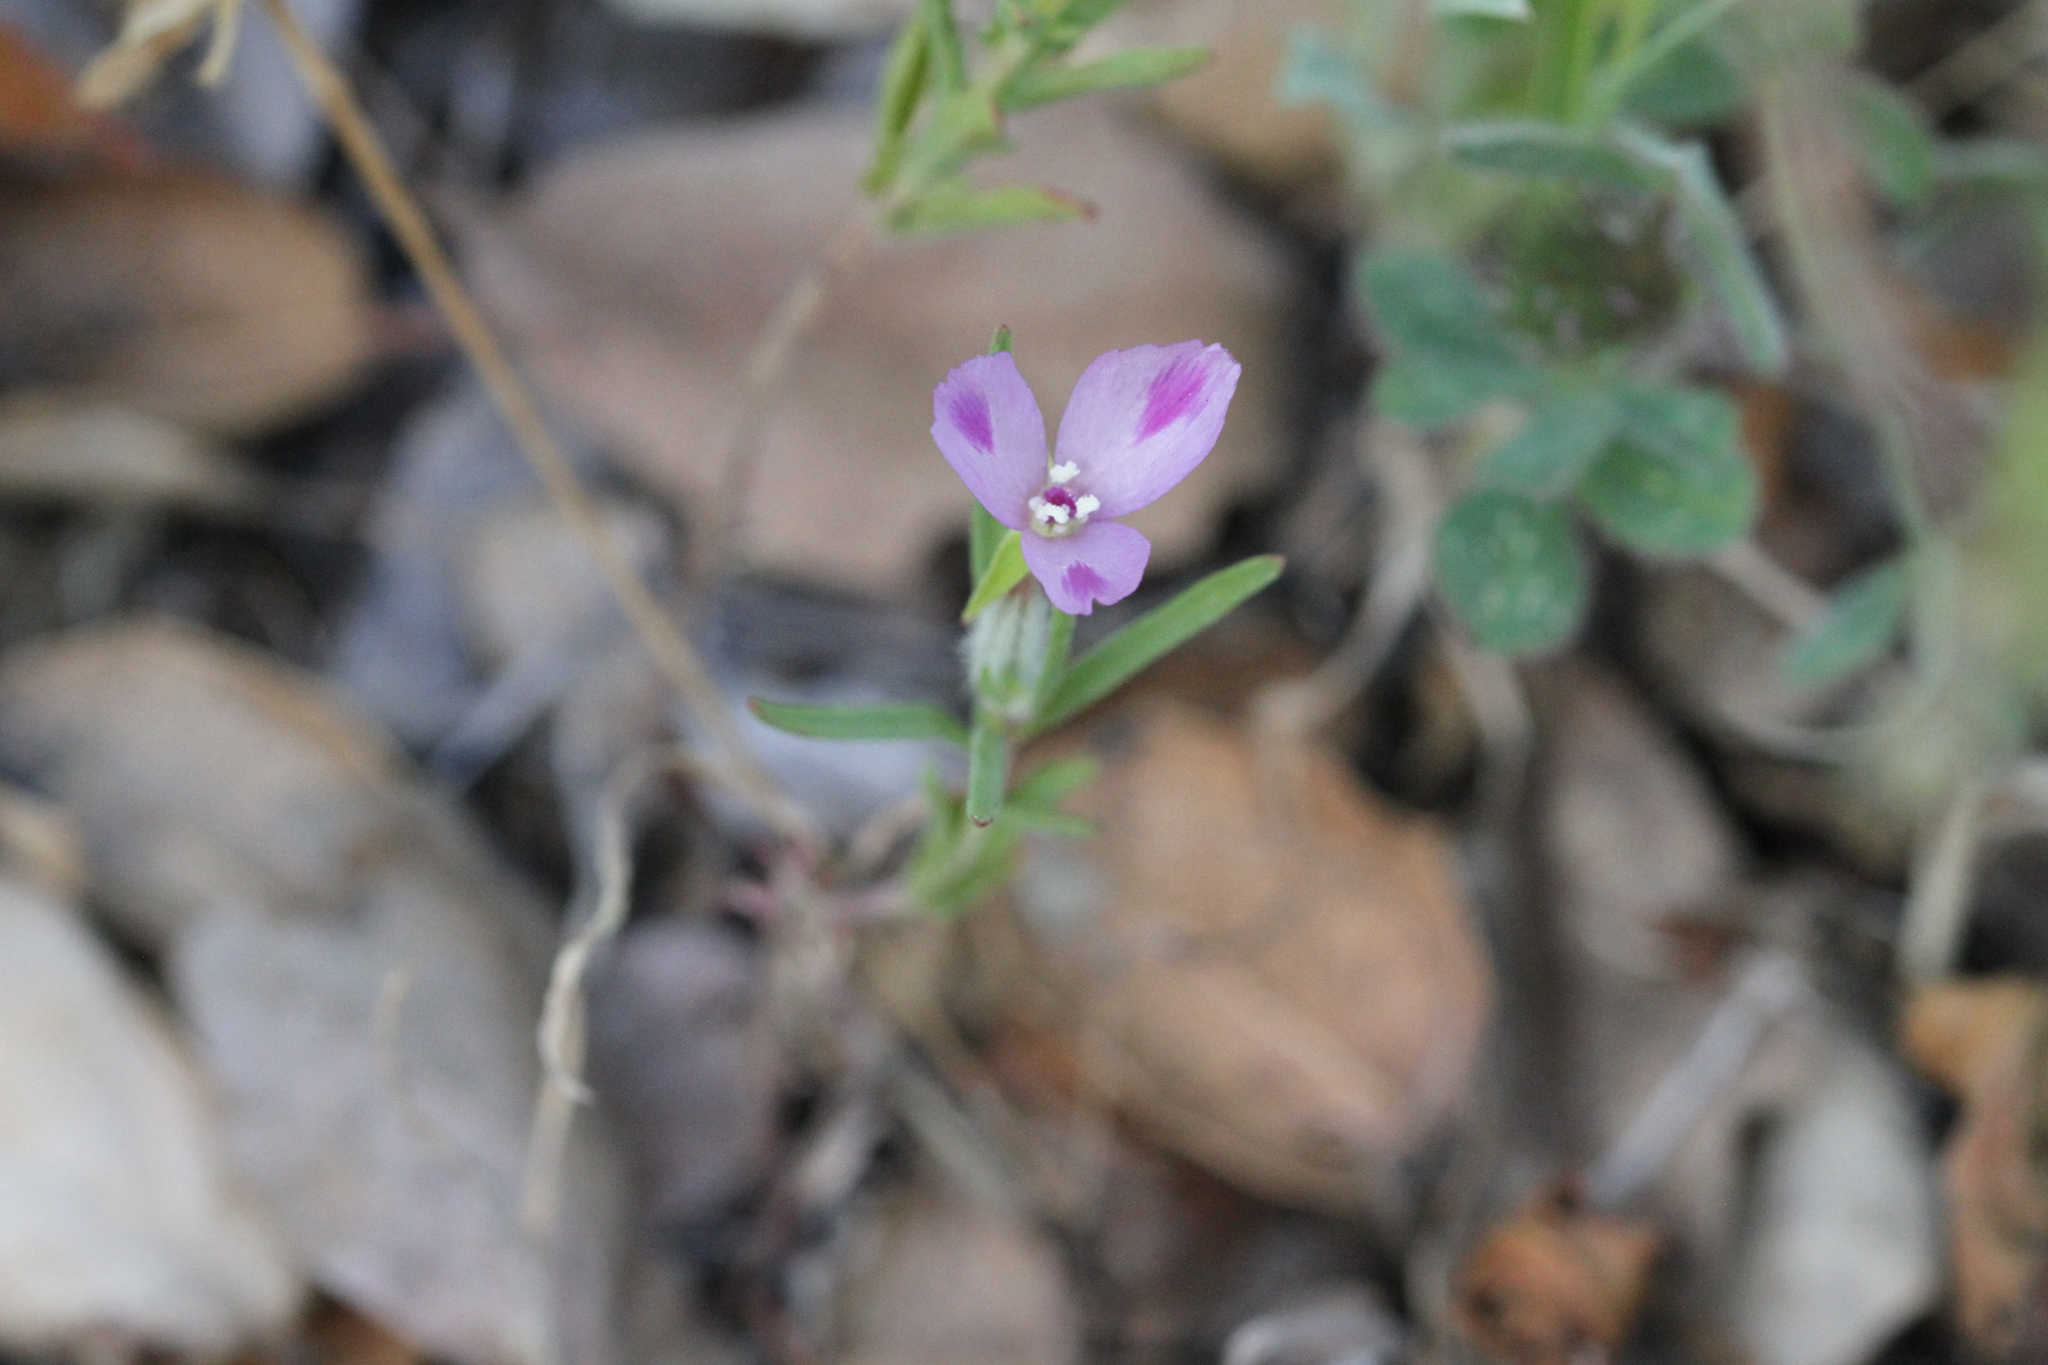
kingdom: Plantae
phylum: Tracheophyta
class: Magnoliopsida
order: Myrtales
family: Onagraceae
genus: Clarkia
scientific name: Clarkia purpurea
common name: Purple clarkia
